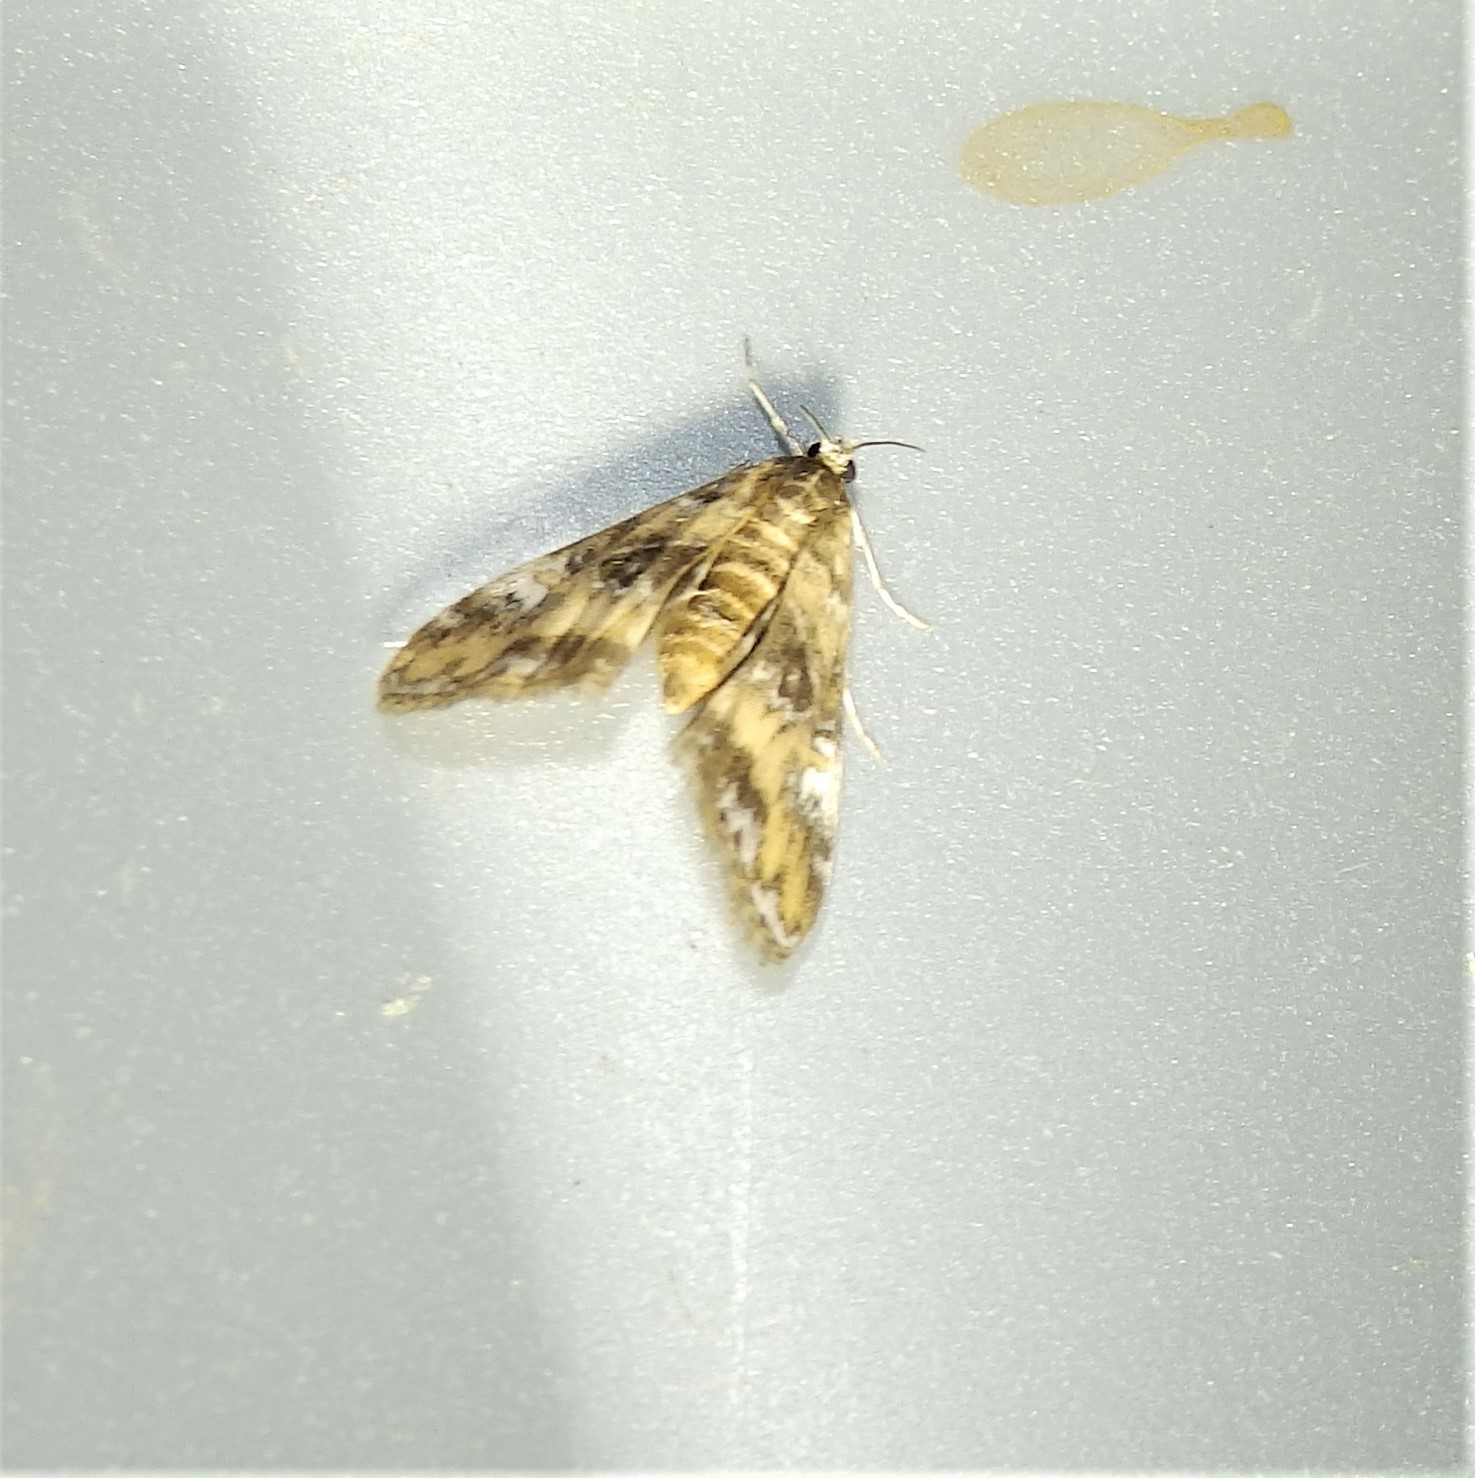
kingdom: Animalia
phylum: Arthropoda
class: Insecta
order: Lepidoptera
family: Crambidae
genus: Elophila
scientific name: Elophila gyralis
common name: Waterlily borer moth
